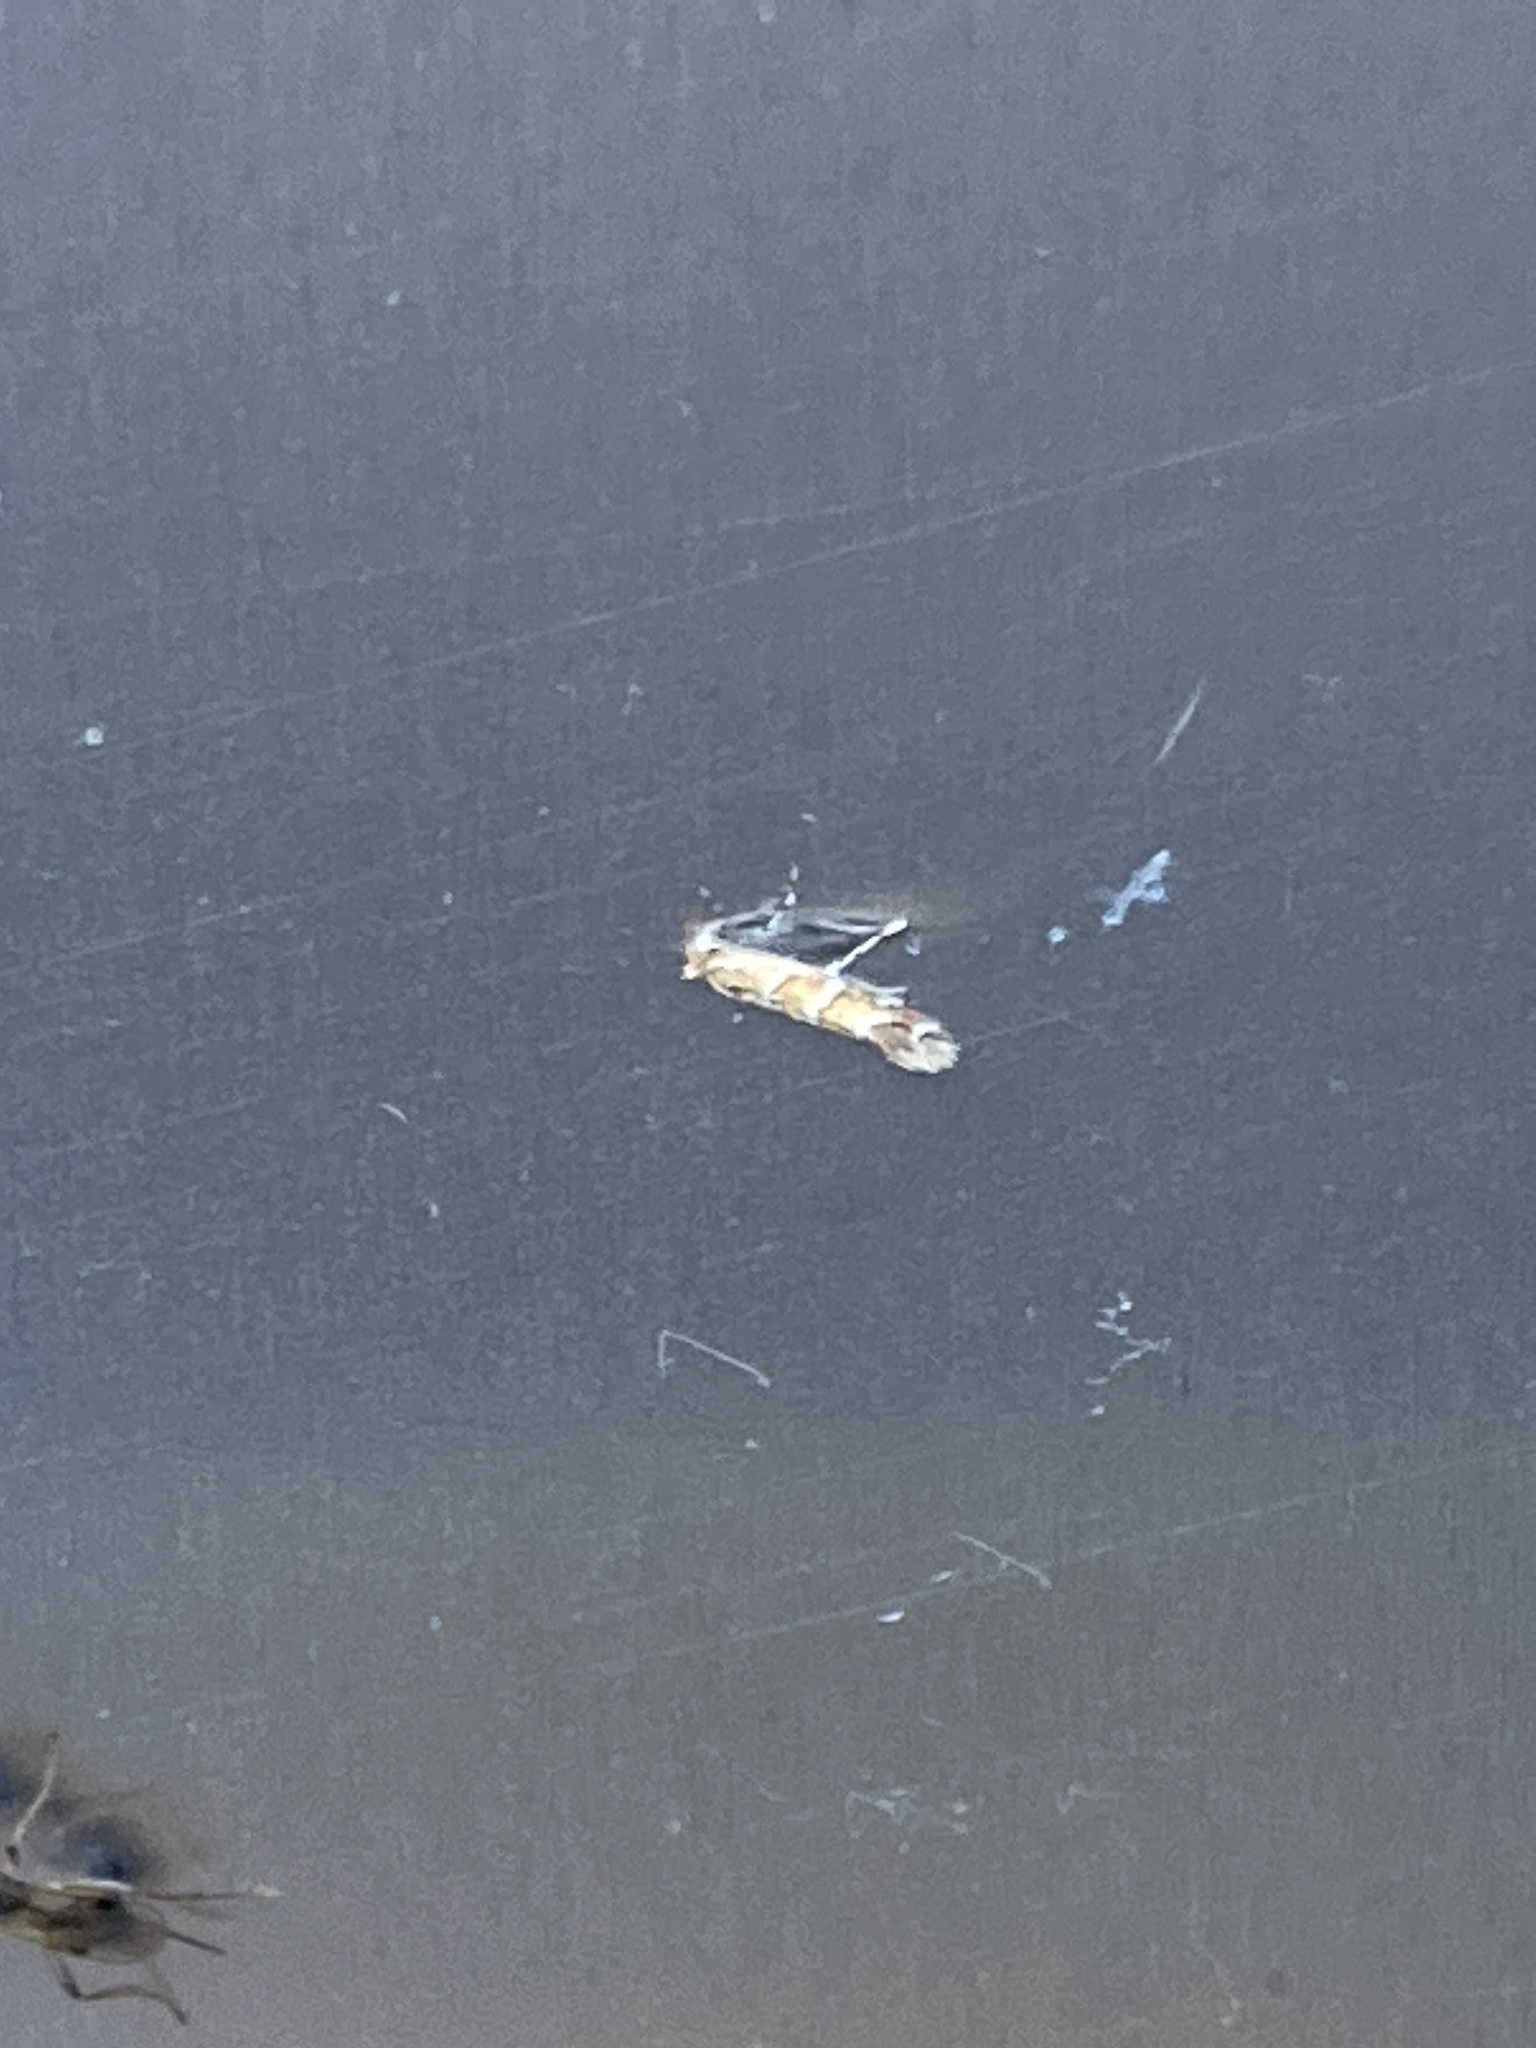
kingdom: Animalia
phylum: Arthropoda
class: Insecta
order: Lepidoptera
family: Gracillariidae
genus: Cameraria
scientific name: Cameraria ohridella
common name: Horse-chestnut leaf-miner
